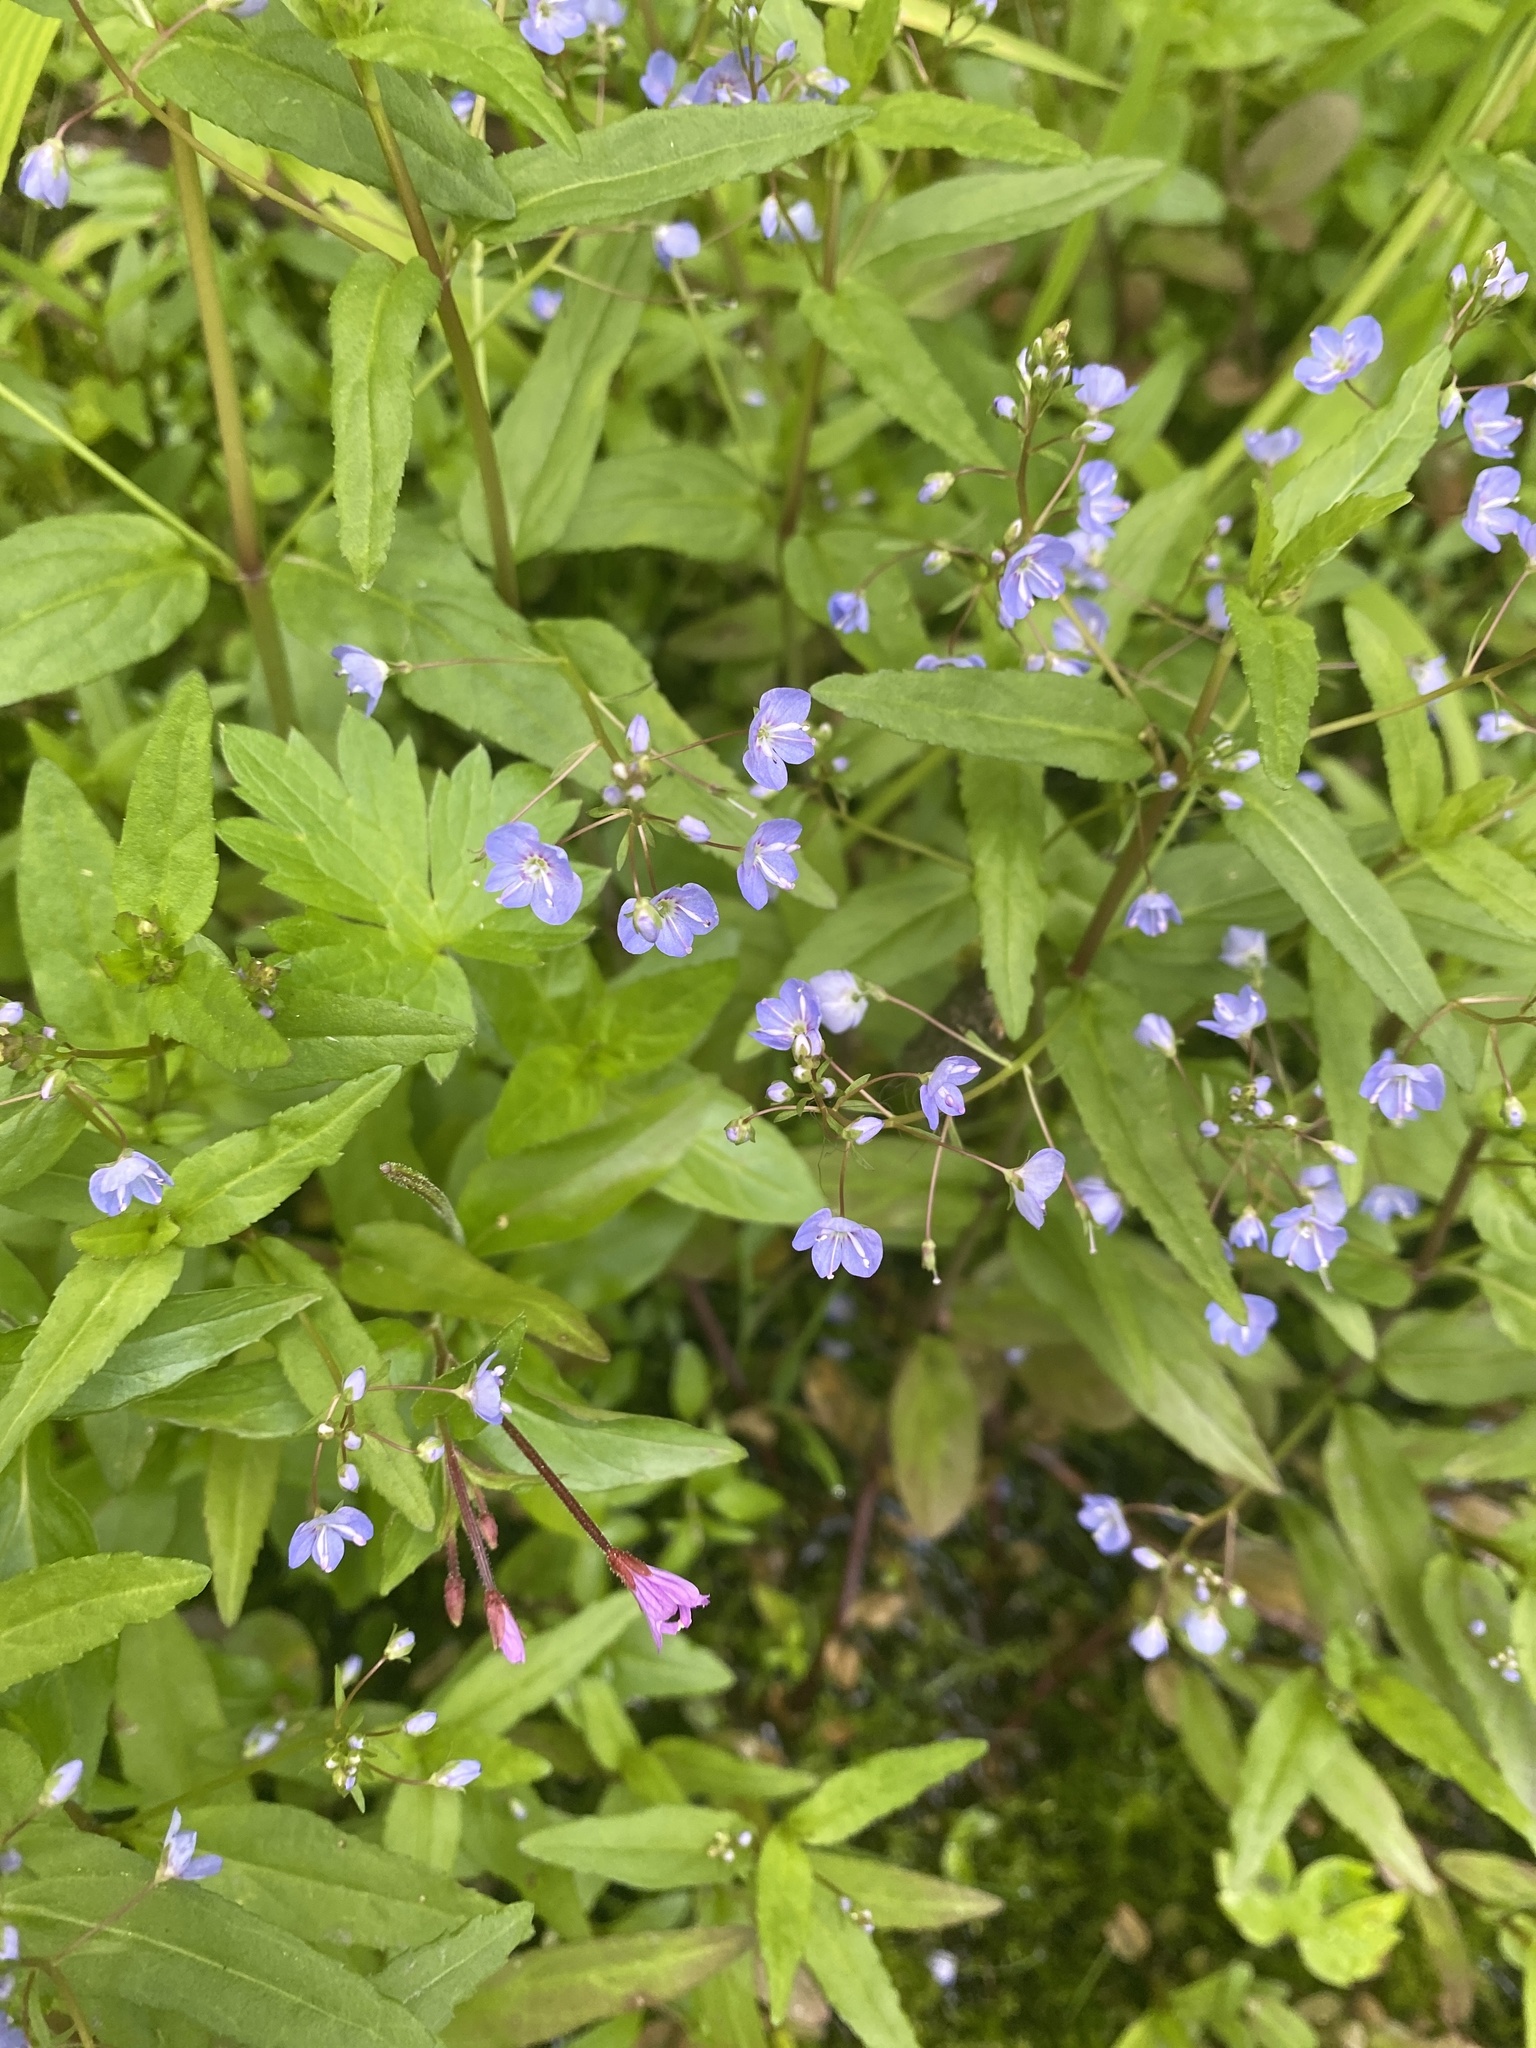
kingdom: Plantae
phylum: Tracheophyta
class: Magnoliopsida
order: Lamiales
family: Plantaginaceae
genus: Veronica
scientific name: Veronica americana
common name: American brooklime
